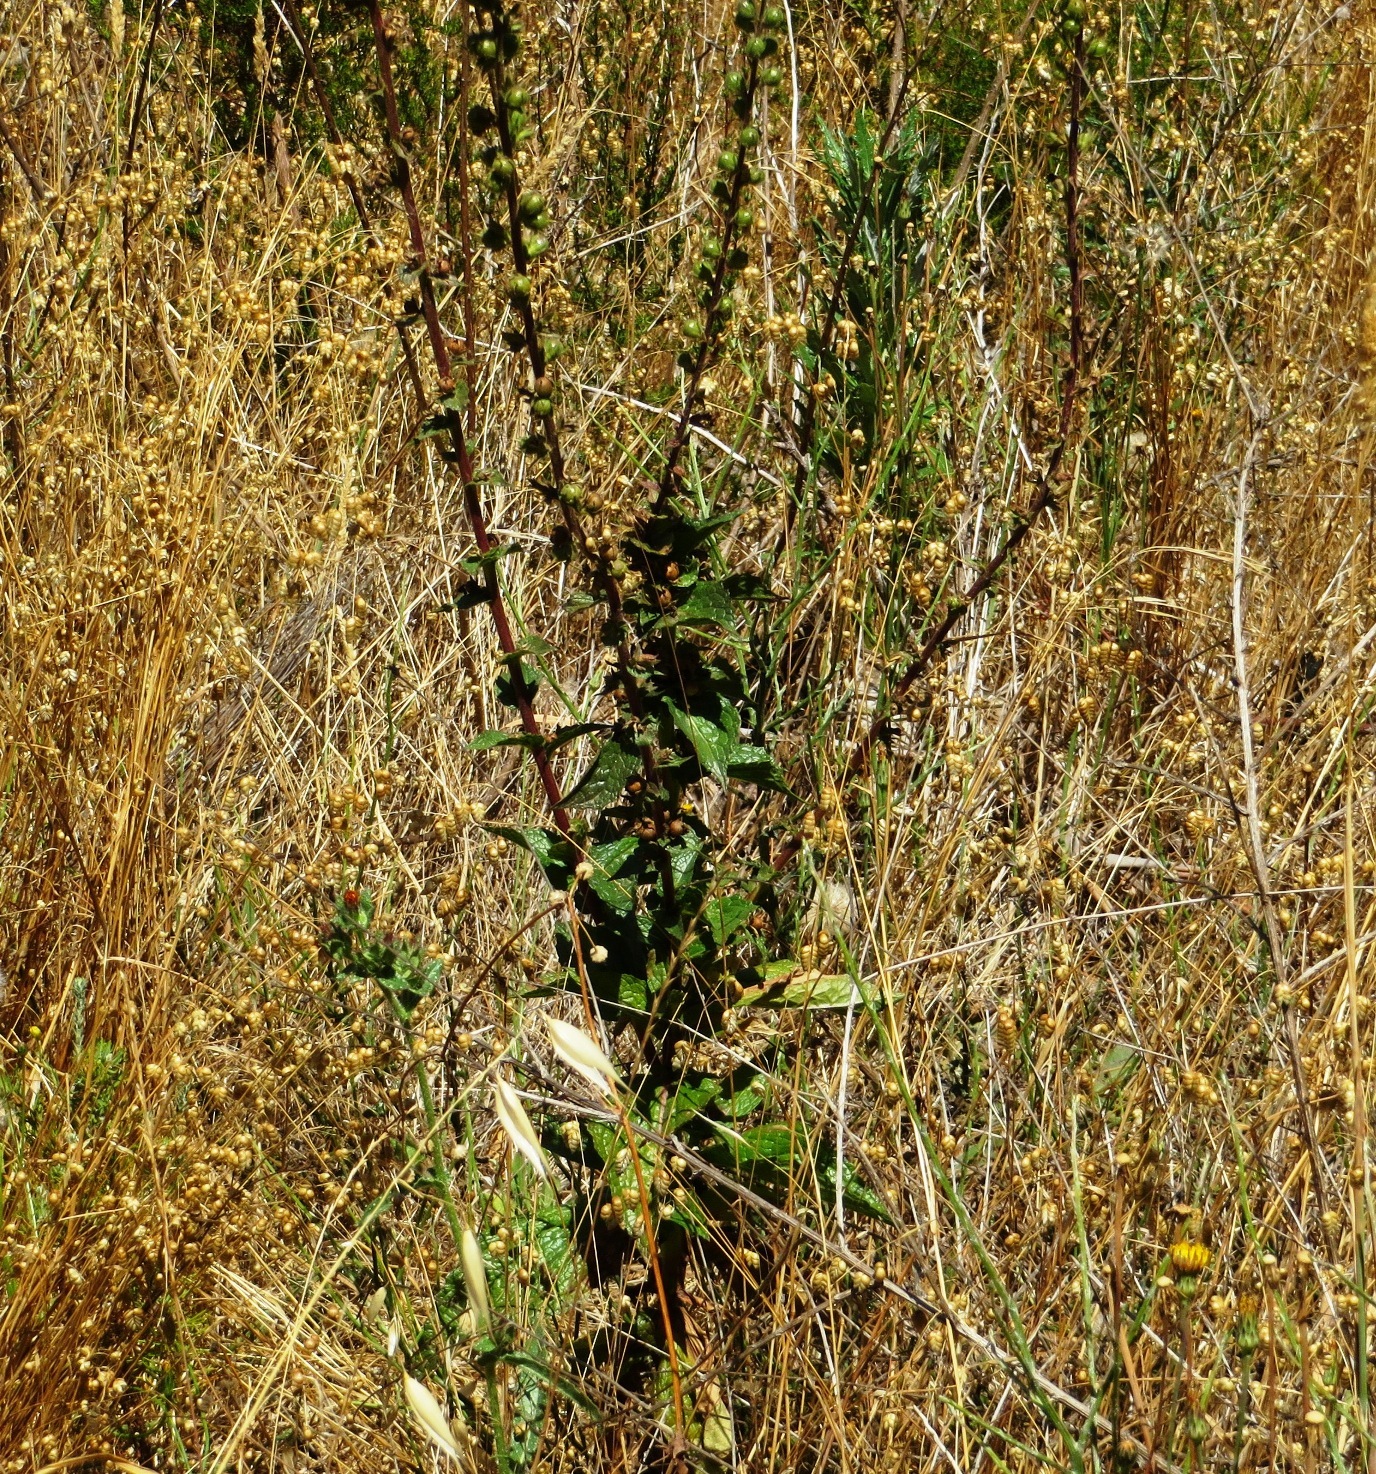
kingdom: Plantae
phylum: Tracheophyta
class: Magnoliopsida
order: Lamiales
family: Scrophulariaceae
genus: Verbascum
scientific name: Verbascum virgatum
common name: Twiggy mullein
